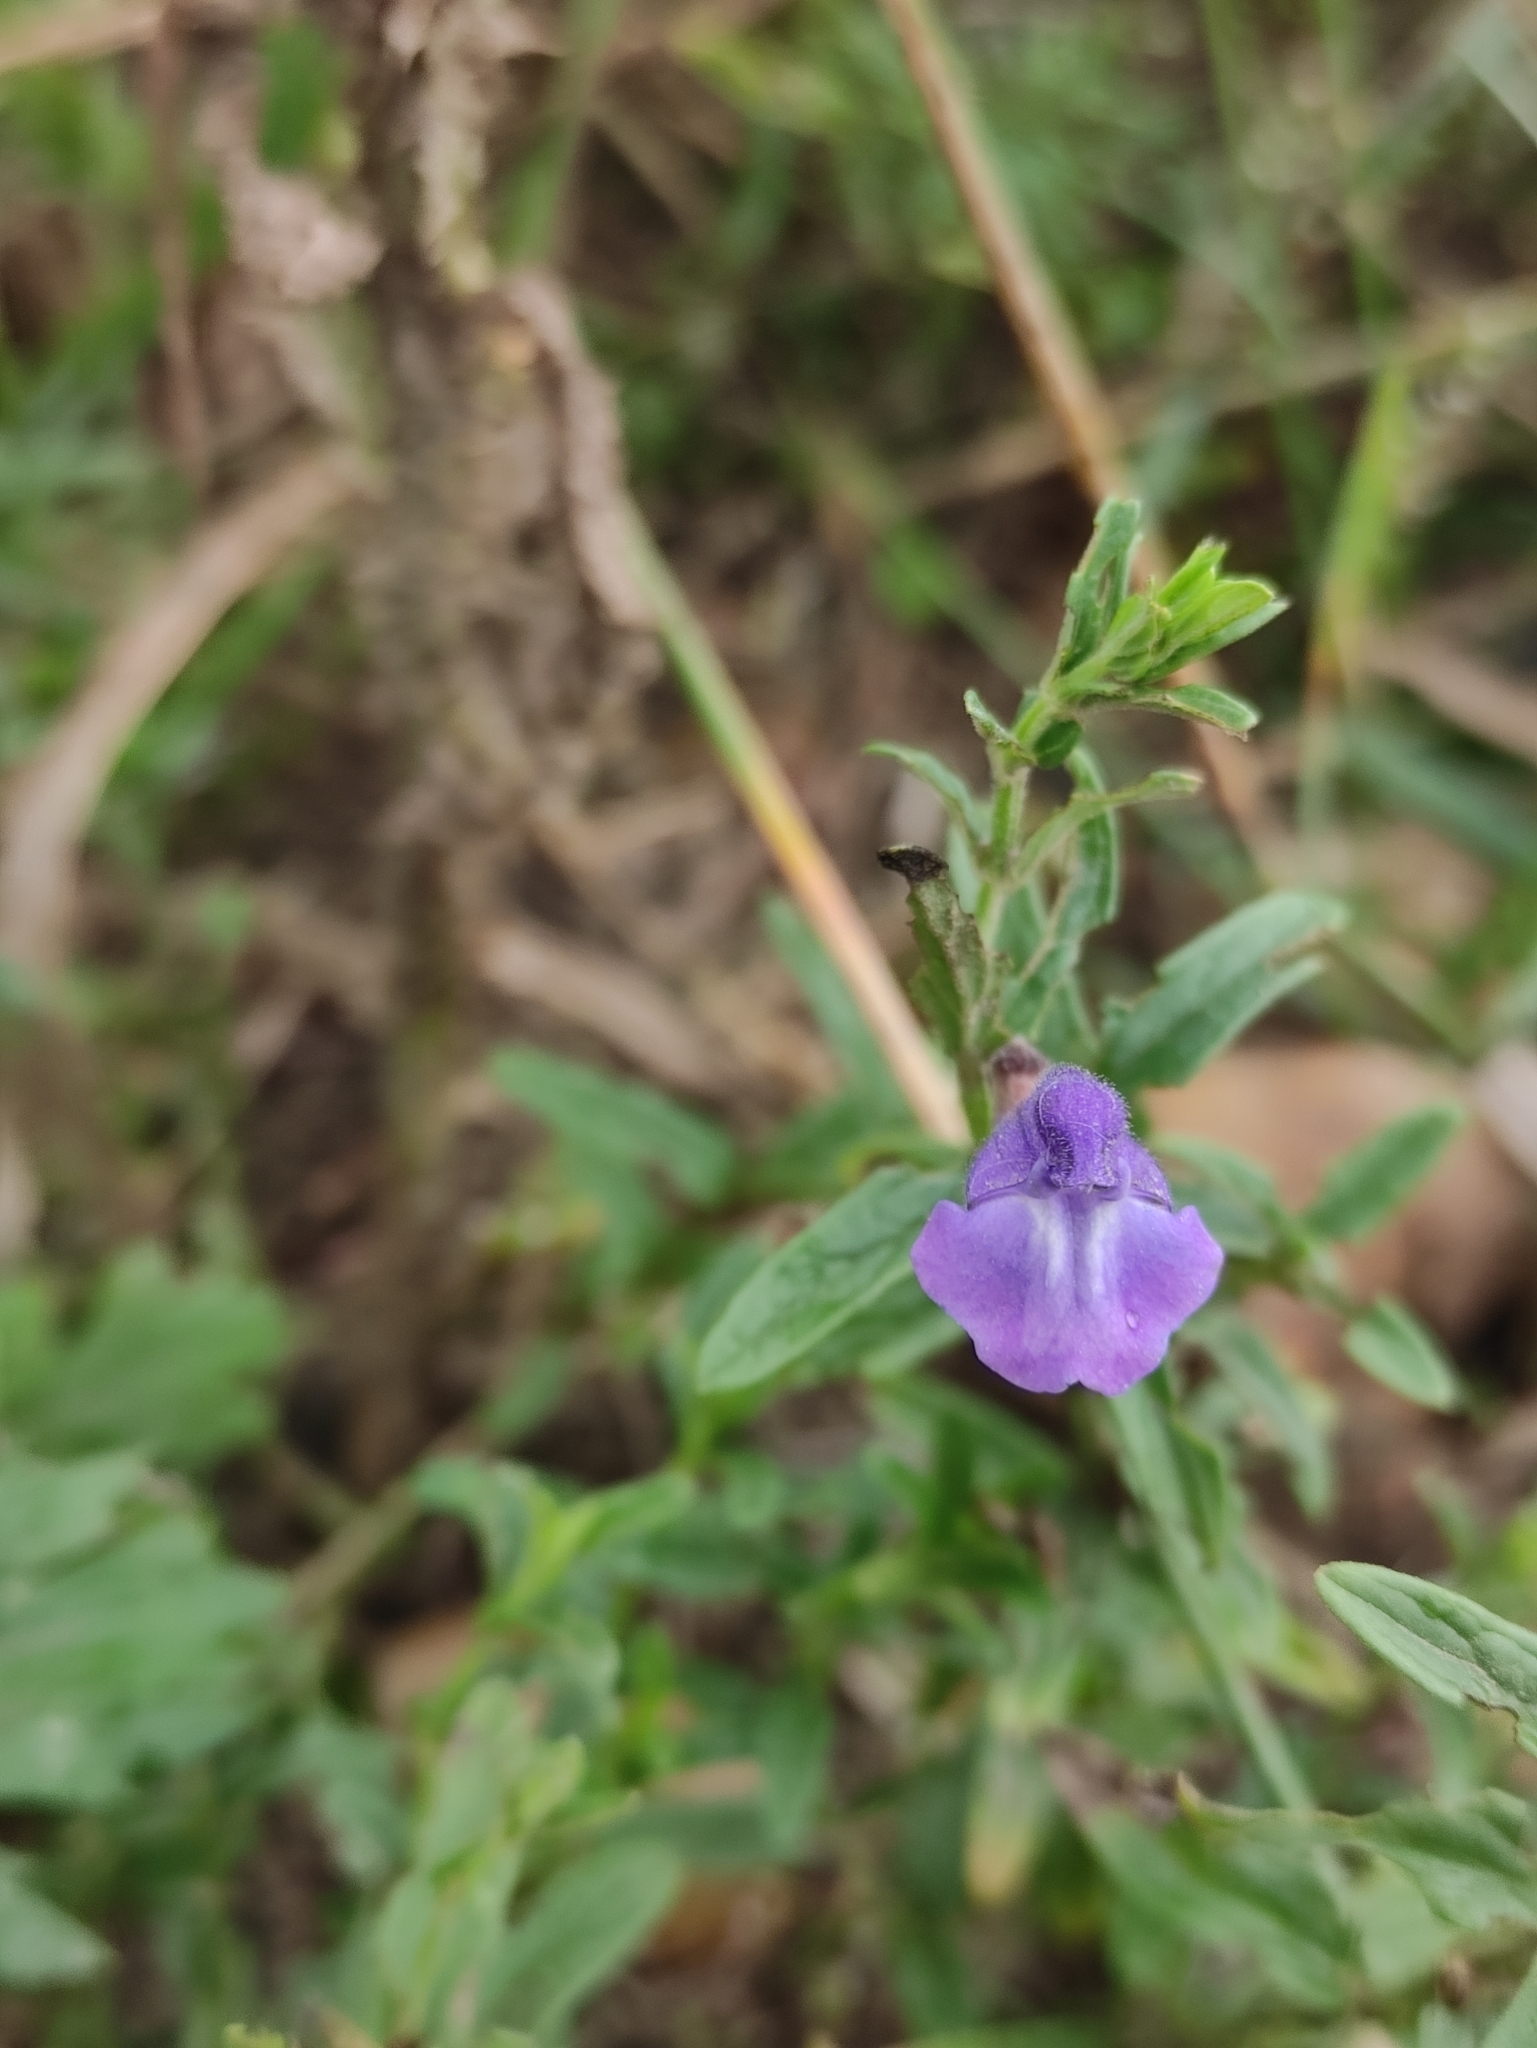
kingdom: Plantae
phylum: Tracheophyta
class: Magnoliopsida
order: Lamiales
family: Lamiaceae
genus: Scutellaria
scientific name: Scutellaria scordiifolia
